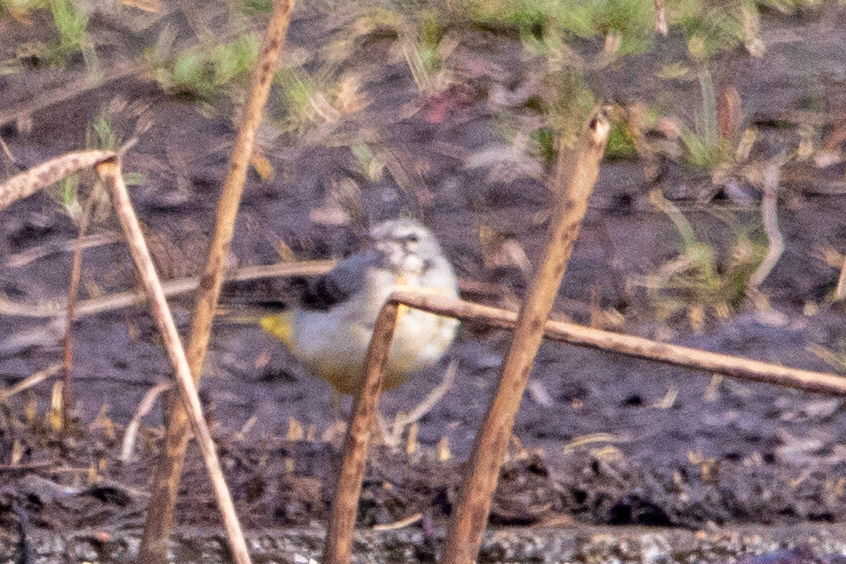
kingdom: Animalia
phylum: Chordata
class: Aves
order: Passeriformes
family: Motacillidae
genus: Motacilla
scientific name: Motacilla cinerea
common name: Grey wagtail
